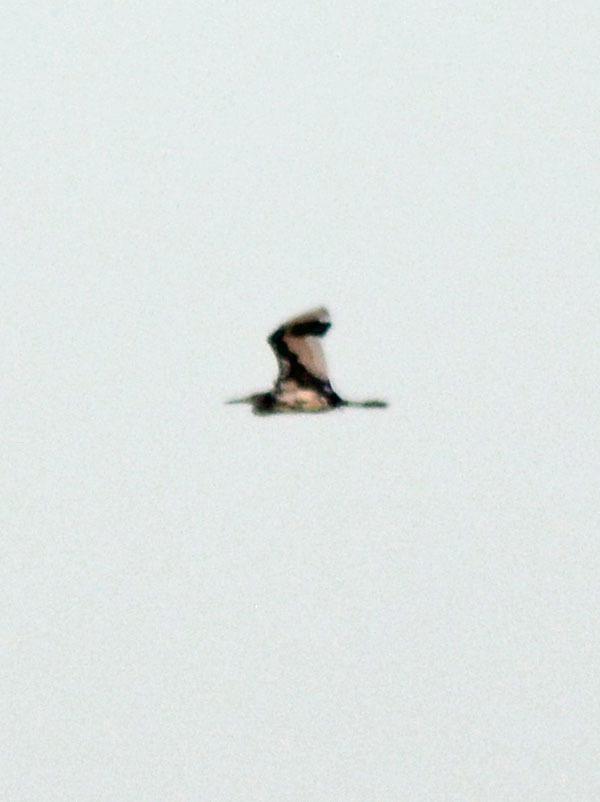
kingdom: Animalia
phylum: Chordata
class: Aves
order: Pelecaniformes
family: Ardeidae
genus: Egretta
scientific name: Egretta caerulea
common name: Little blue heron
